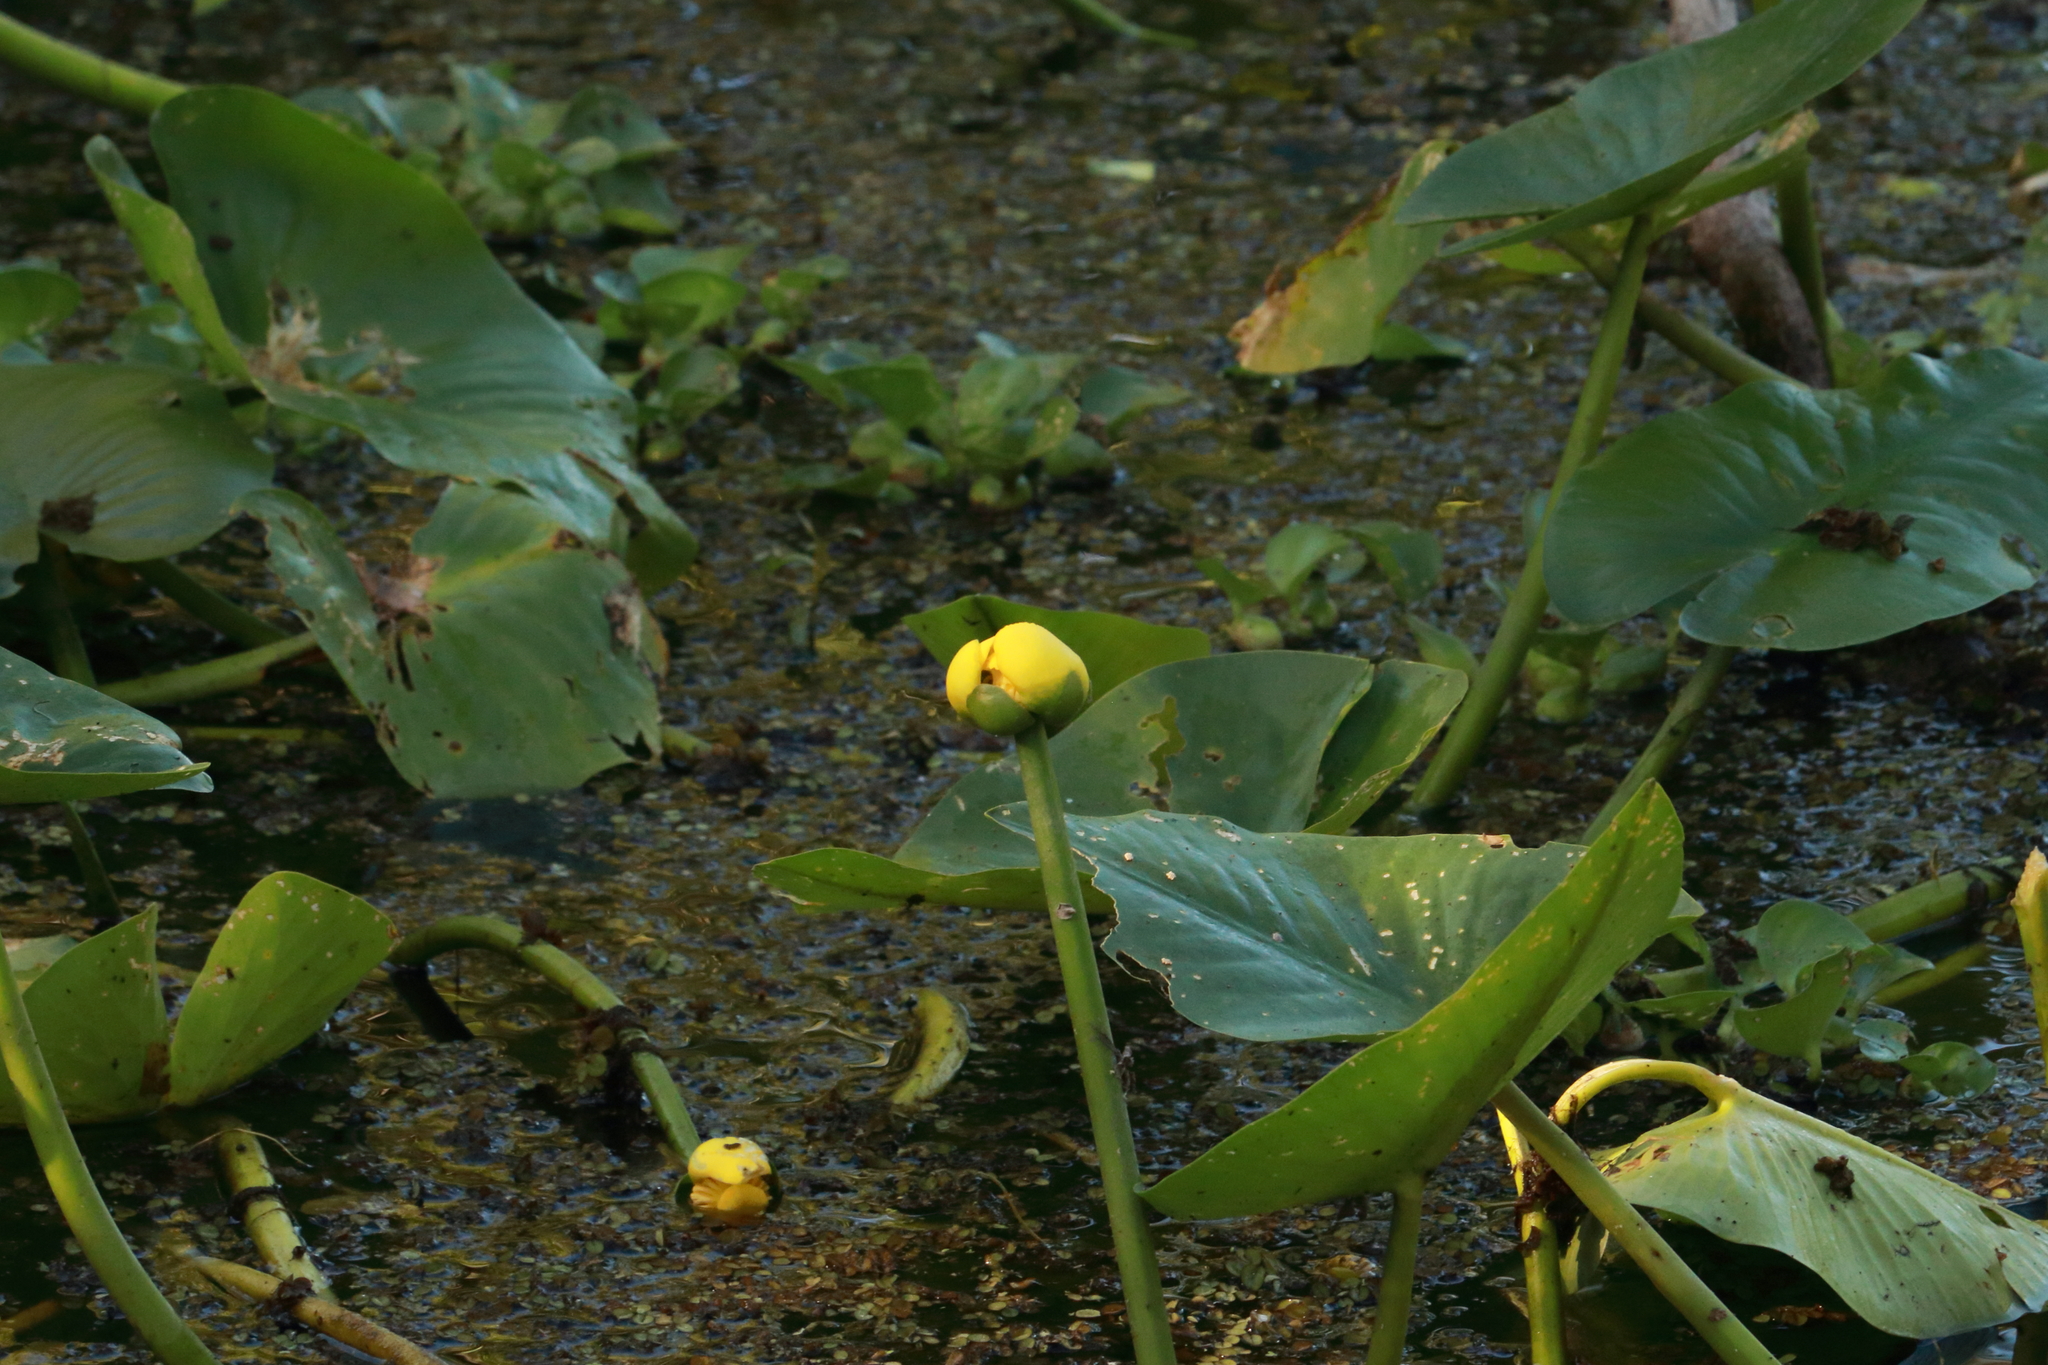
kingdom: Plantae
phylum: Tracheophyta
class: Magnoliopsida
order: Nymphaeales
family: Nymphaeaceae
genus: Nuphar
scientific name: Nuphar advena
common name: Spatter-dock
